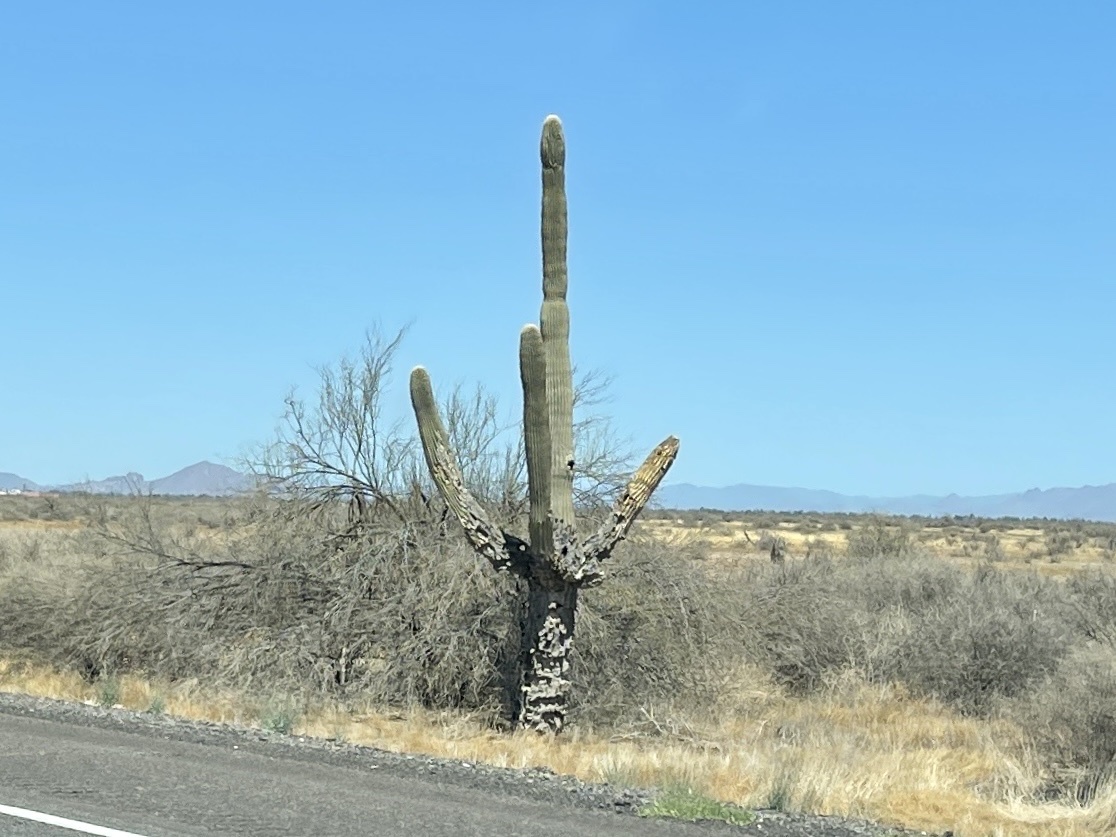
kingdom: Plantae
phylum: Tracheophyta
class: Magnoliopsida
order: Caryophyllales
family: Cactaceae
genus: Carnegiea
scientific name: Carnegiea gigantea
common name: Saguaro
